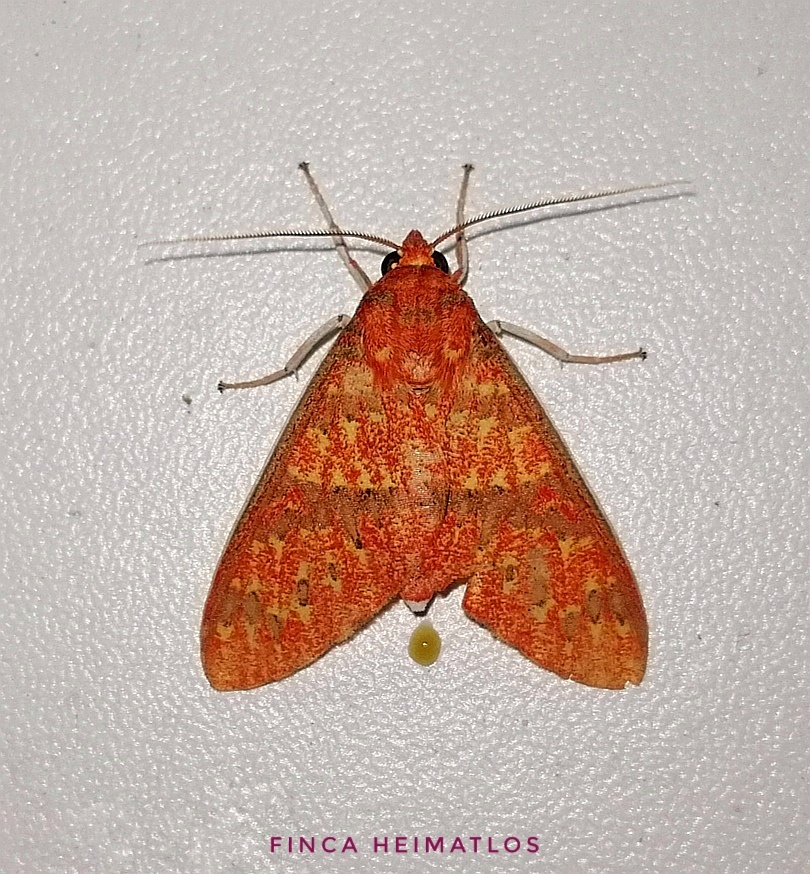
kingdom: Animalia
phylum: Arthropoda
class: Insecta
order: Lepidoptera
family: Erebidae
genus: Araeomolis
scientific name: Araeomolis nigripuncta
